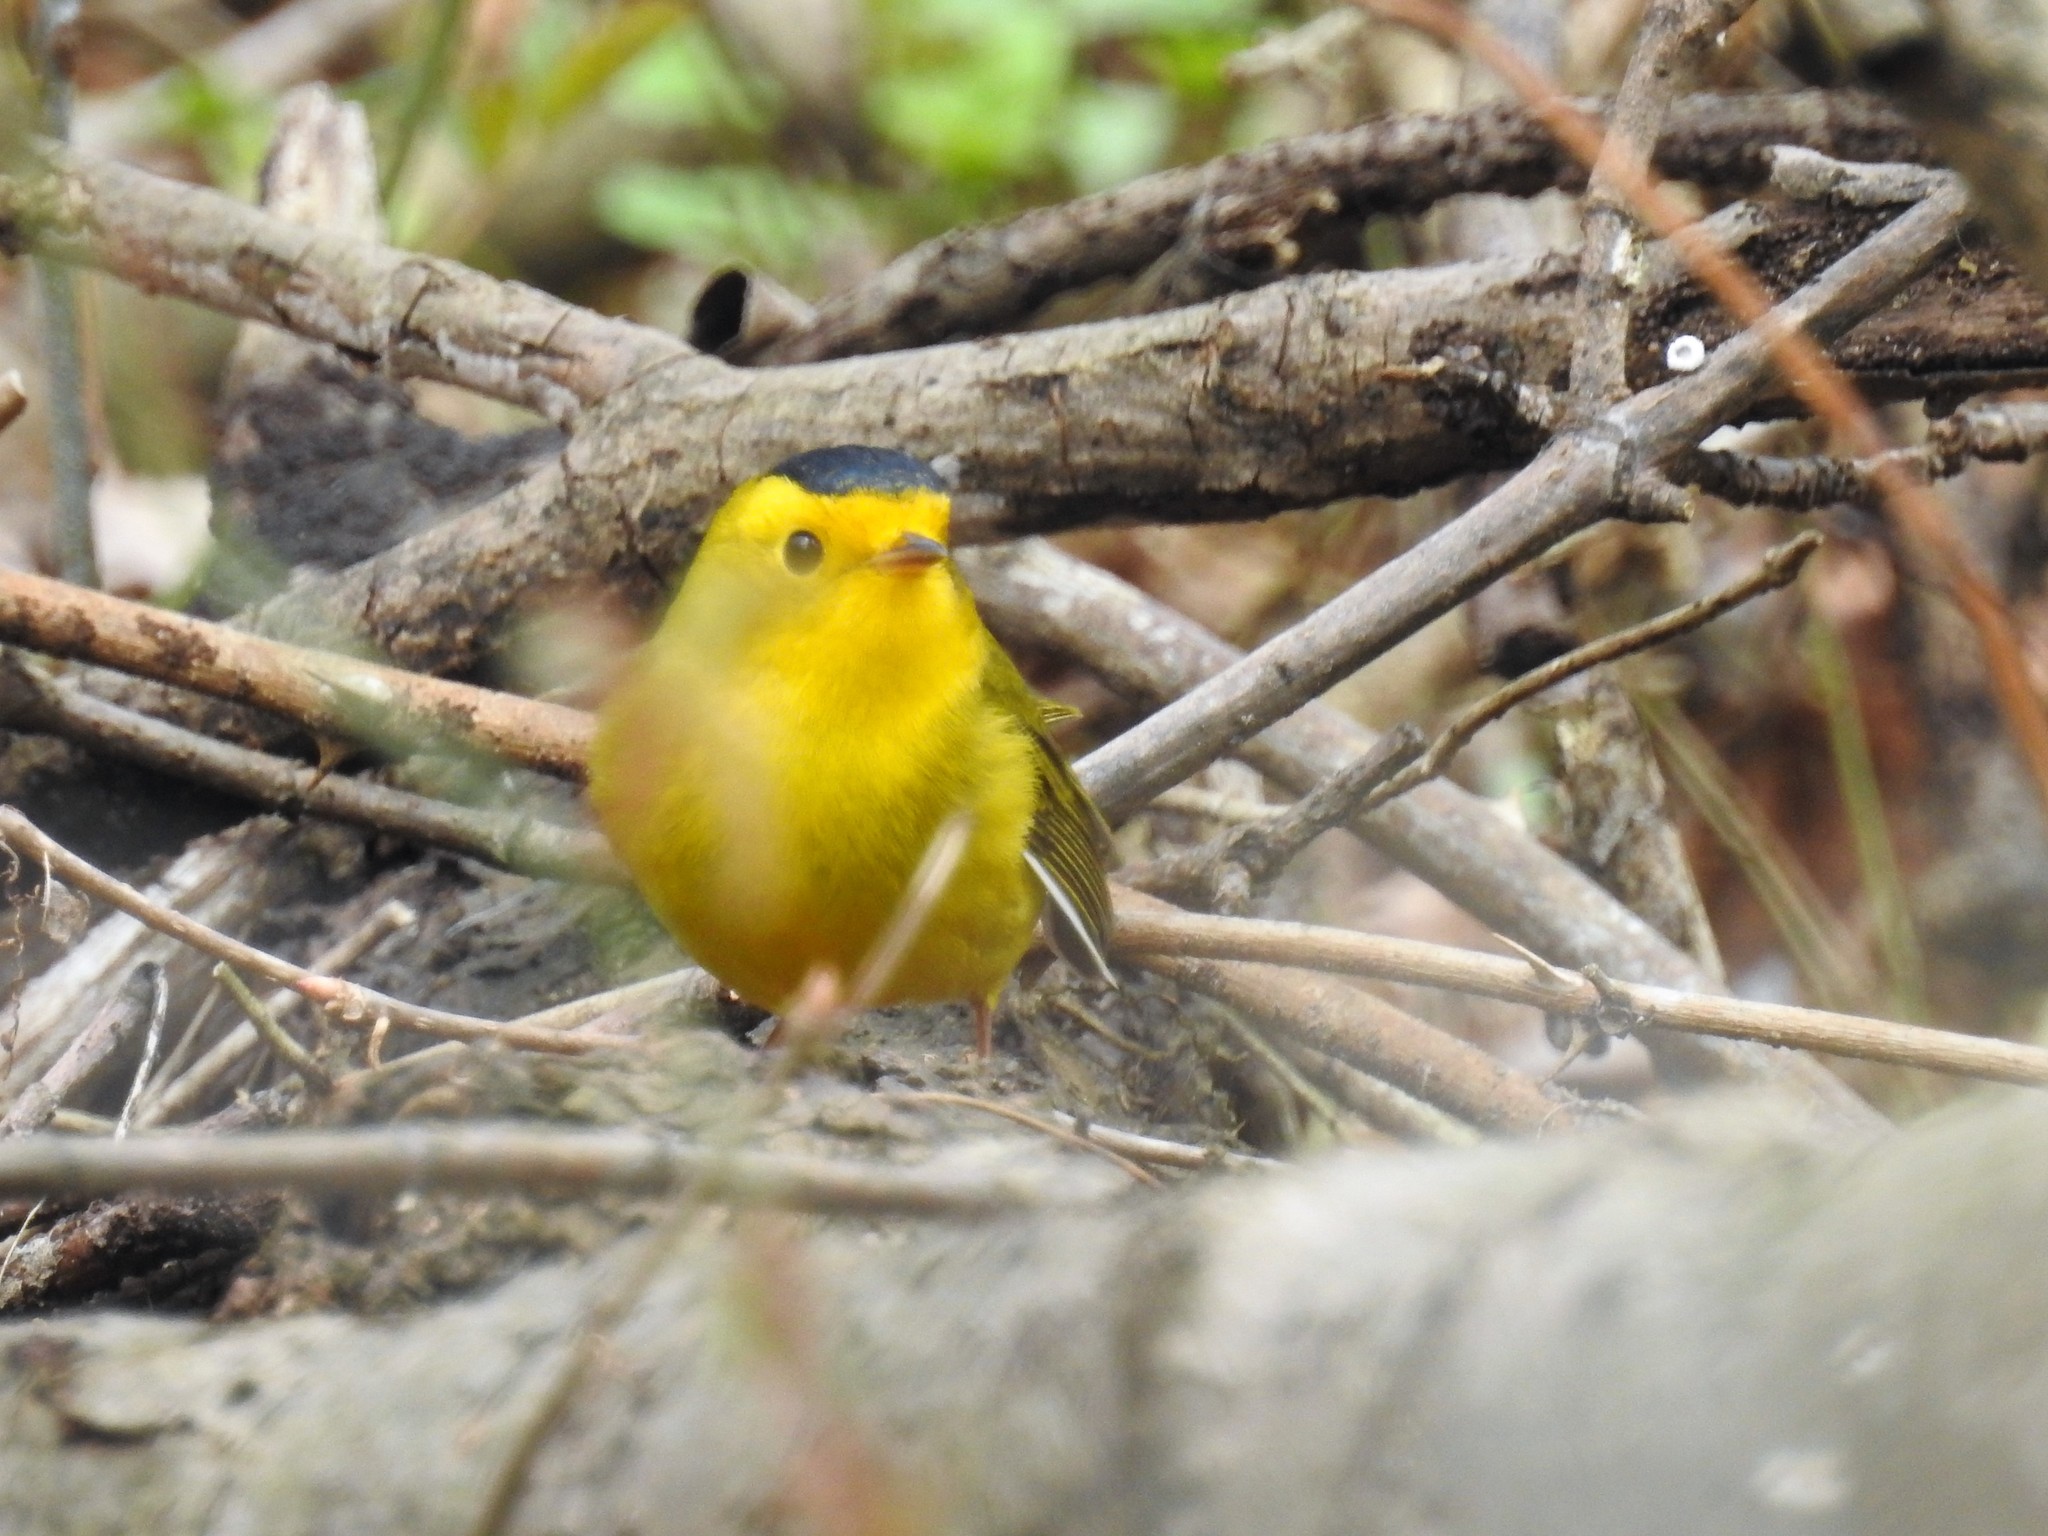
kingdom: Animalia
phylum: Chordata
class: Aves
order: Passeriformes
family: Parulidae
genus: Cardellina
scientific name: Cardellina pusilla
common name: Wilson's warbler
